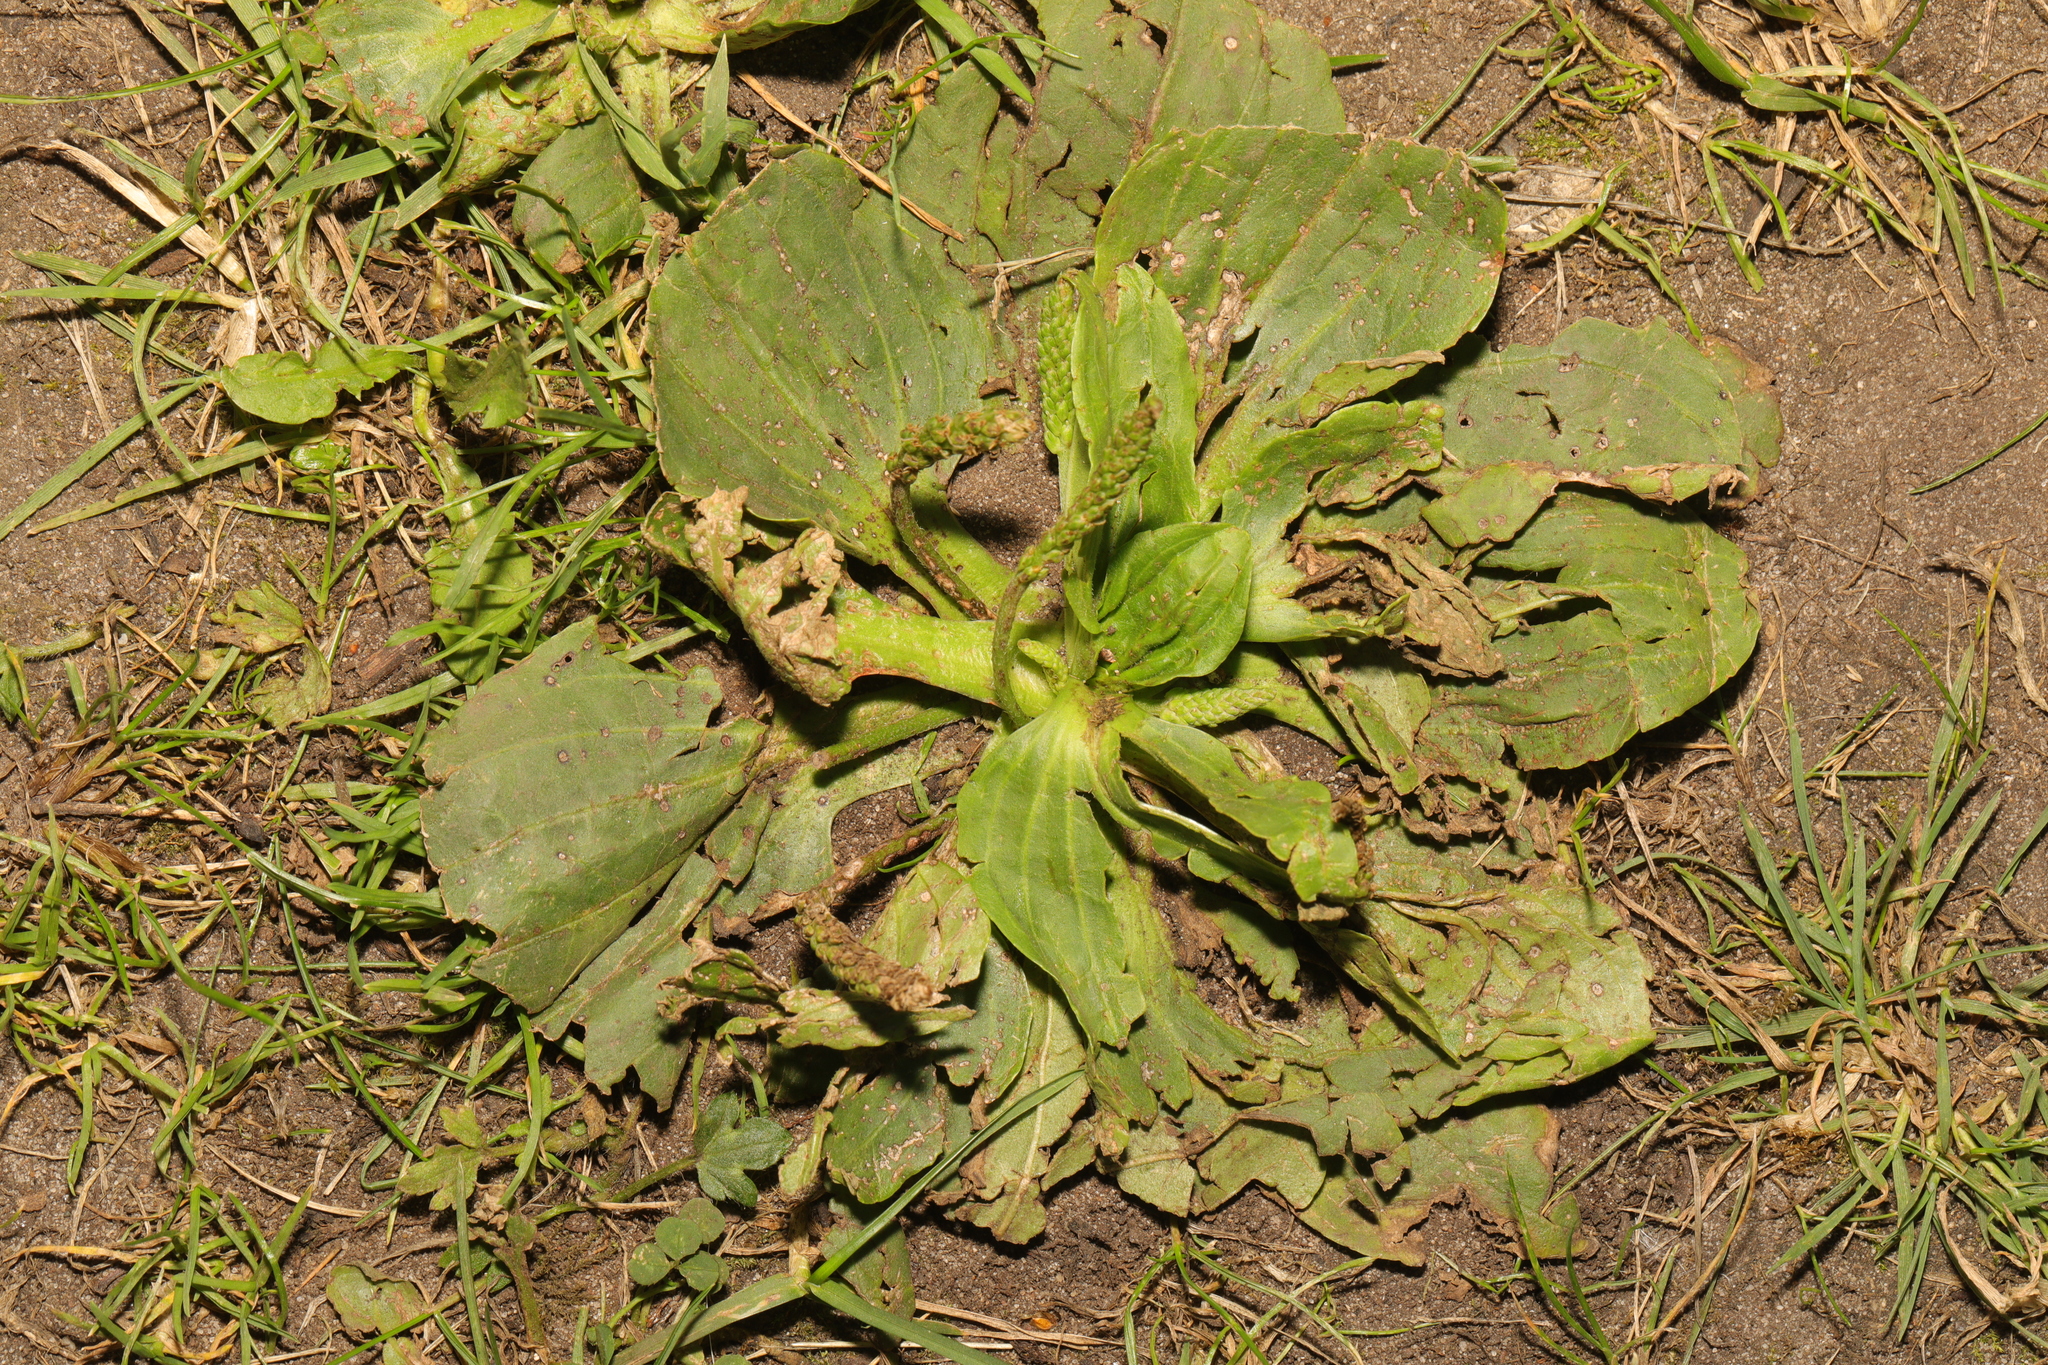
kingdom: Plantae
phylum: Tracheophyta
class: Magnoliopsida
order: Lamiales
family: Plantaginaceae
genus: Plantago
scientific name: Plantago major
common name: Common plantain
